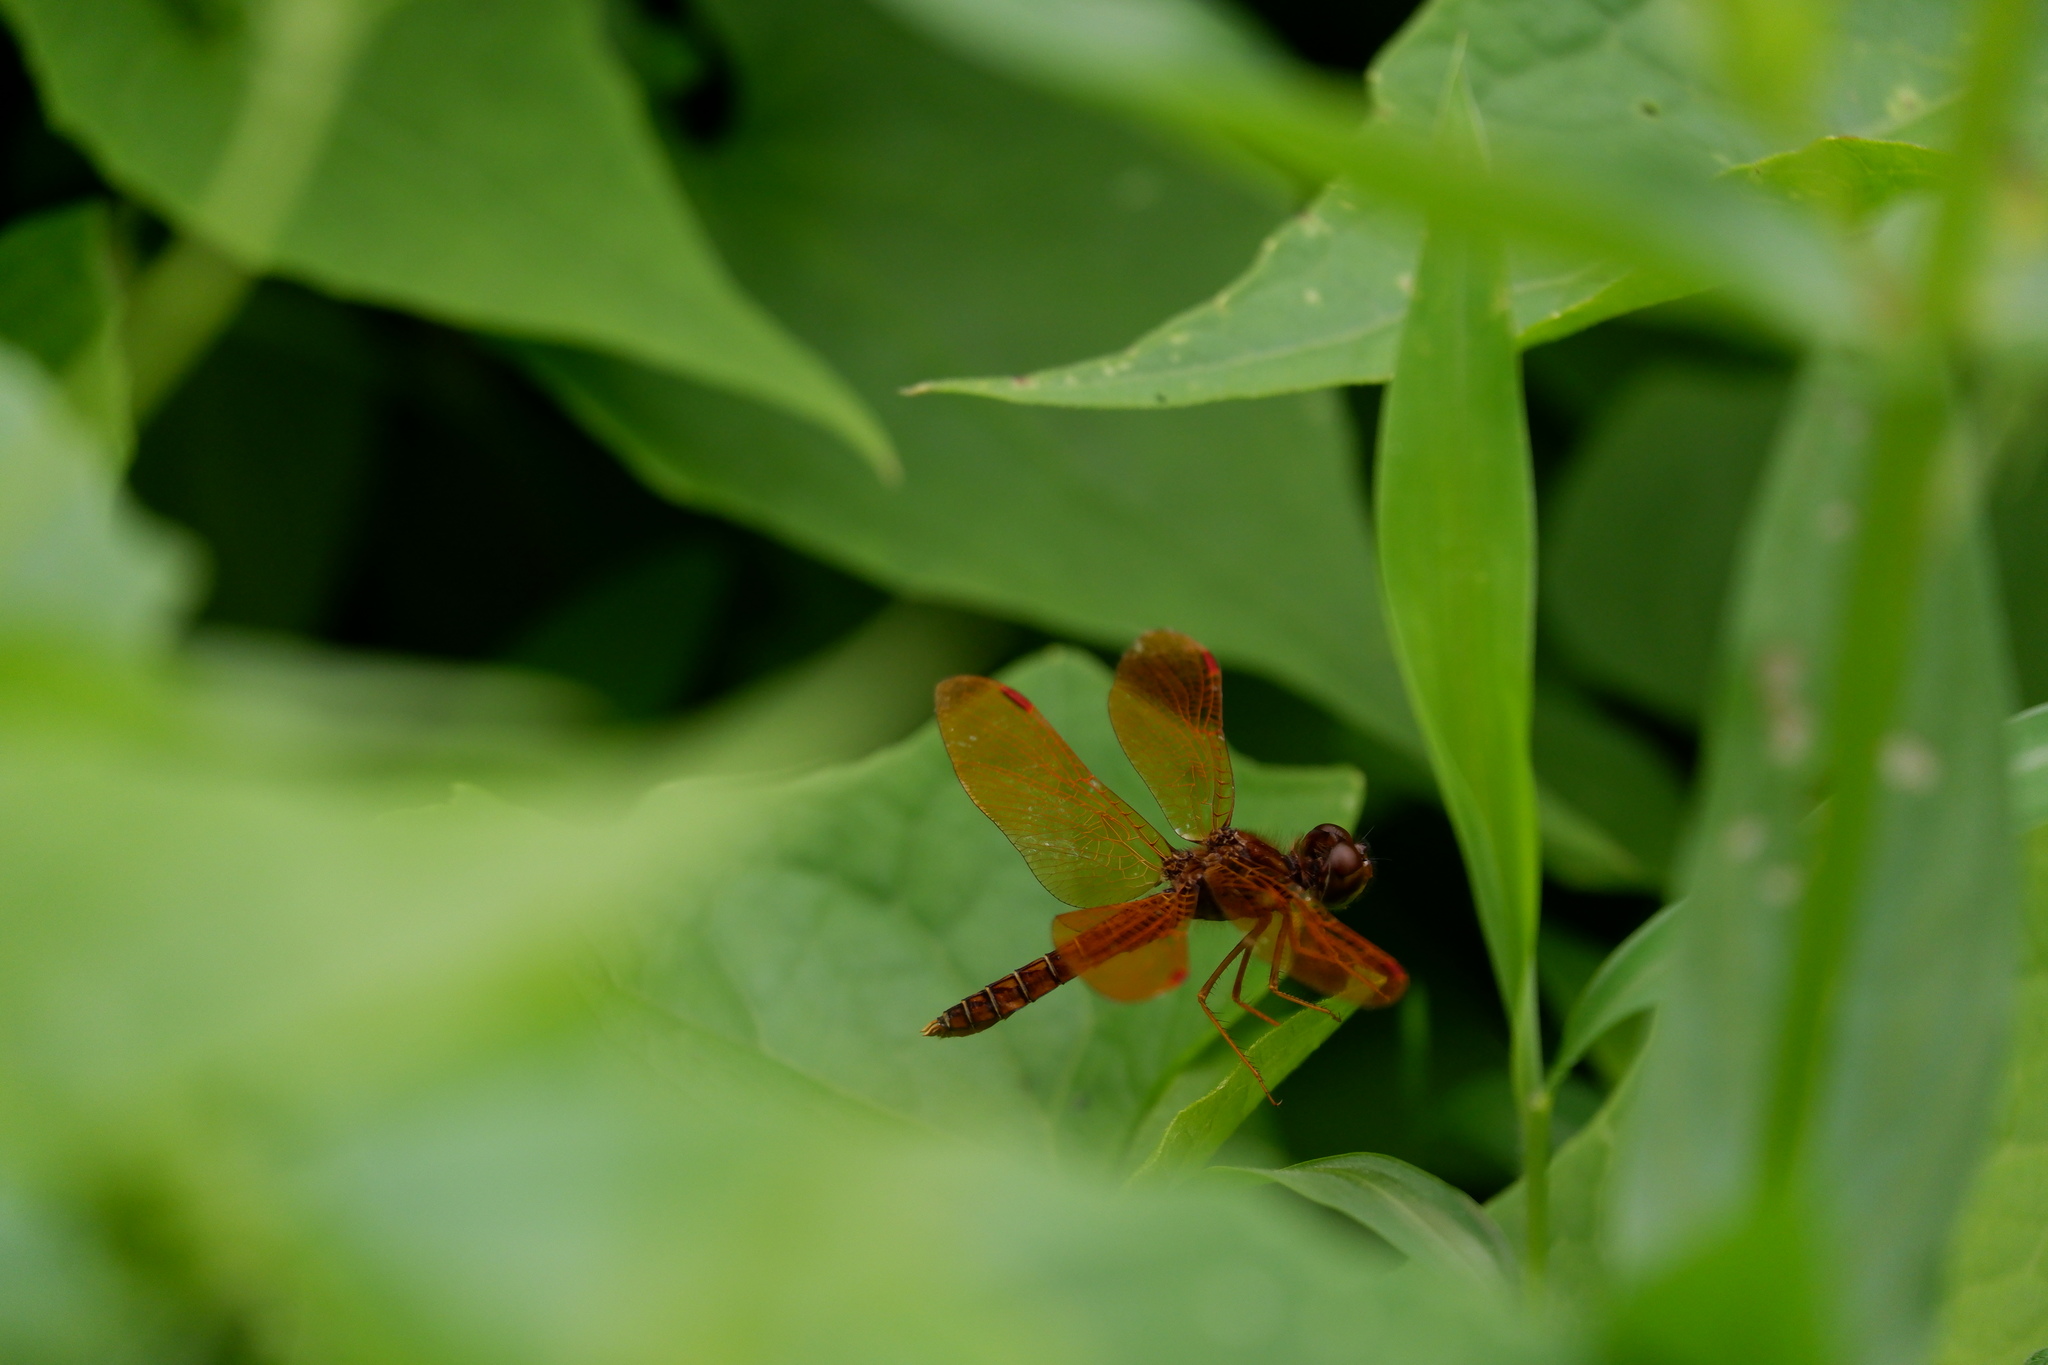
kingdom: Animalia
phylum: Arthropoda
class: Insecta
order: Odonata
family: Libellulidae
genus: Perithemis
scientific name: Perithemis tenera
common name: Eastern amberwing
